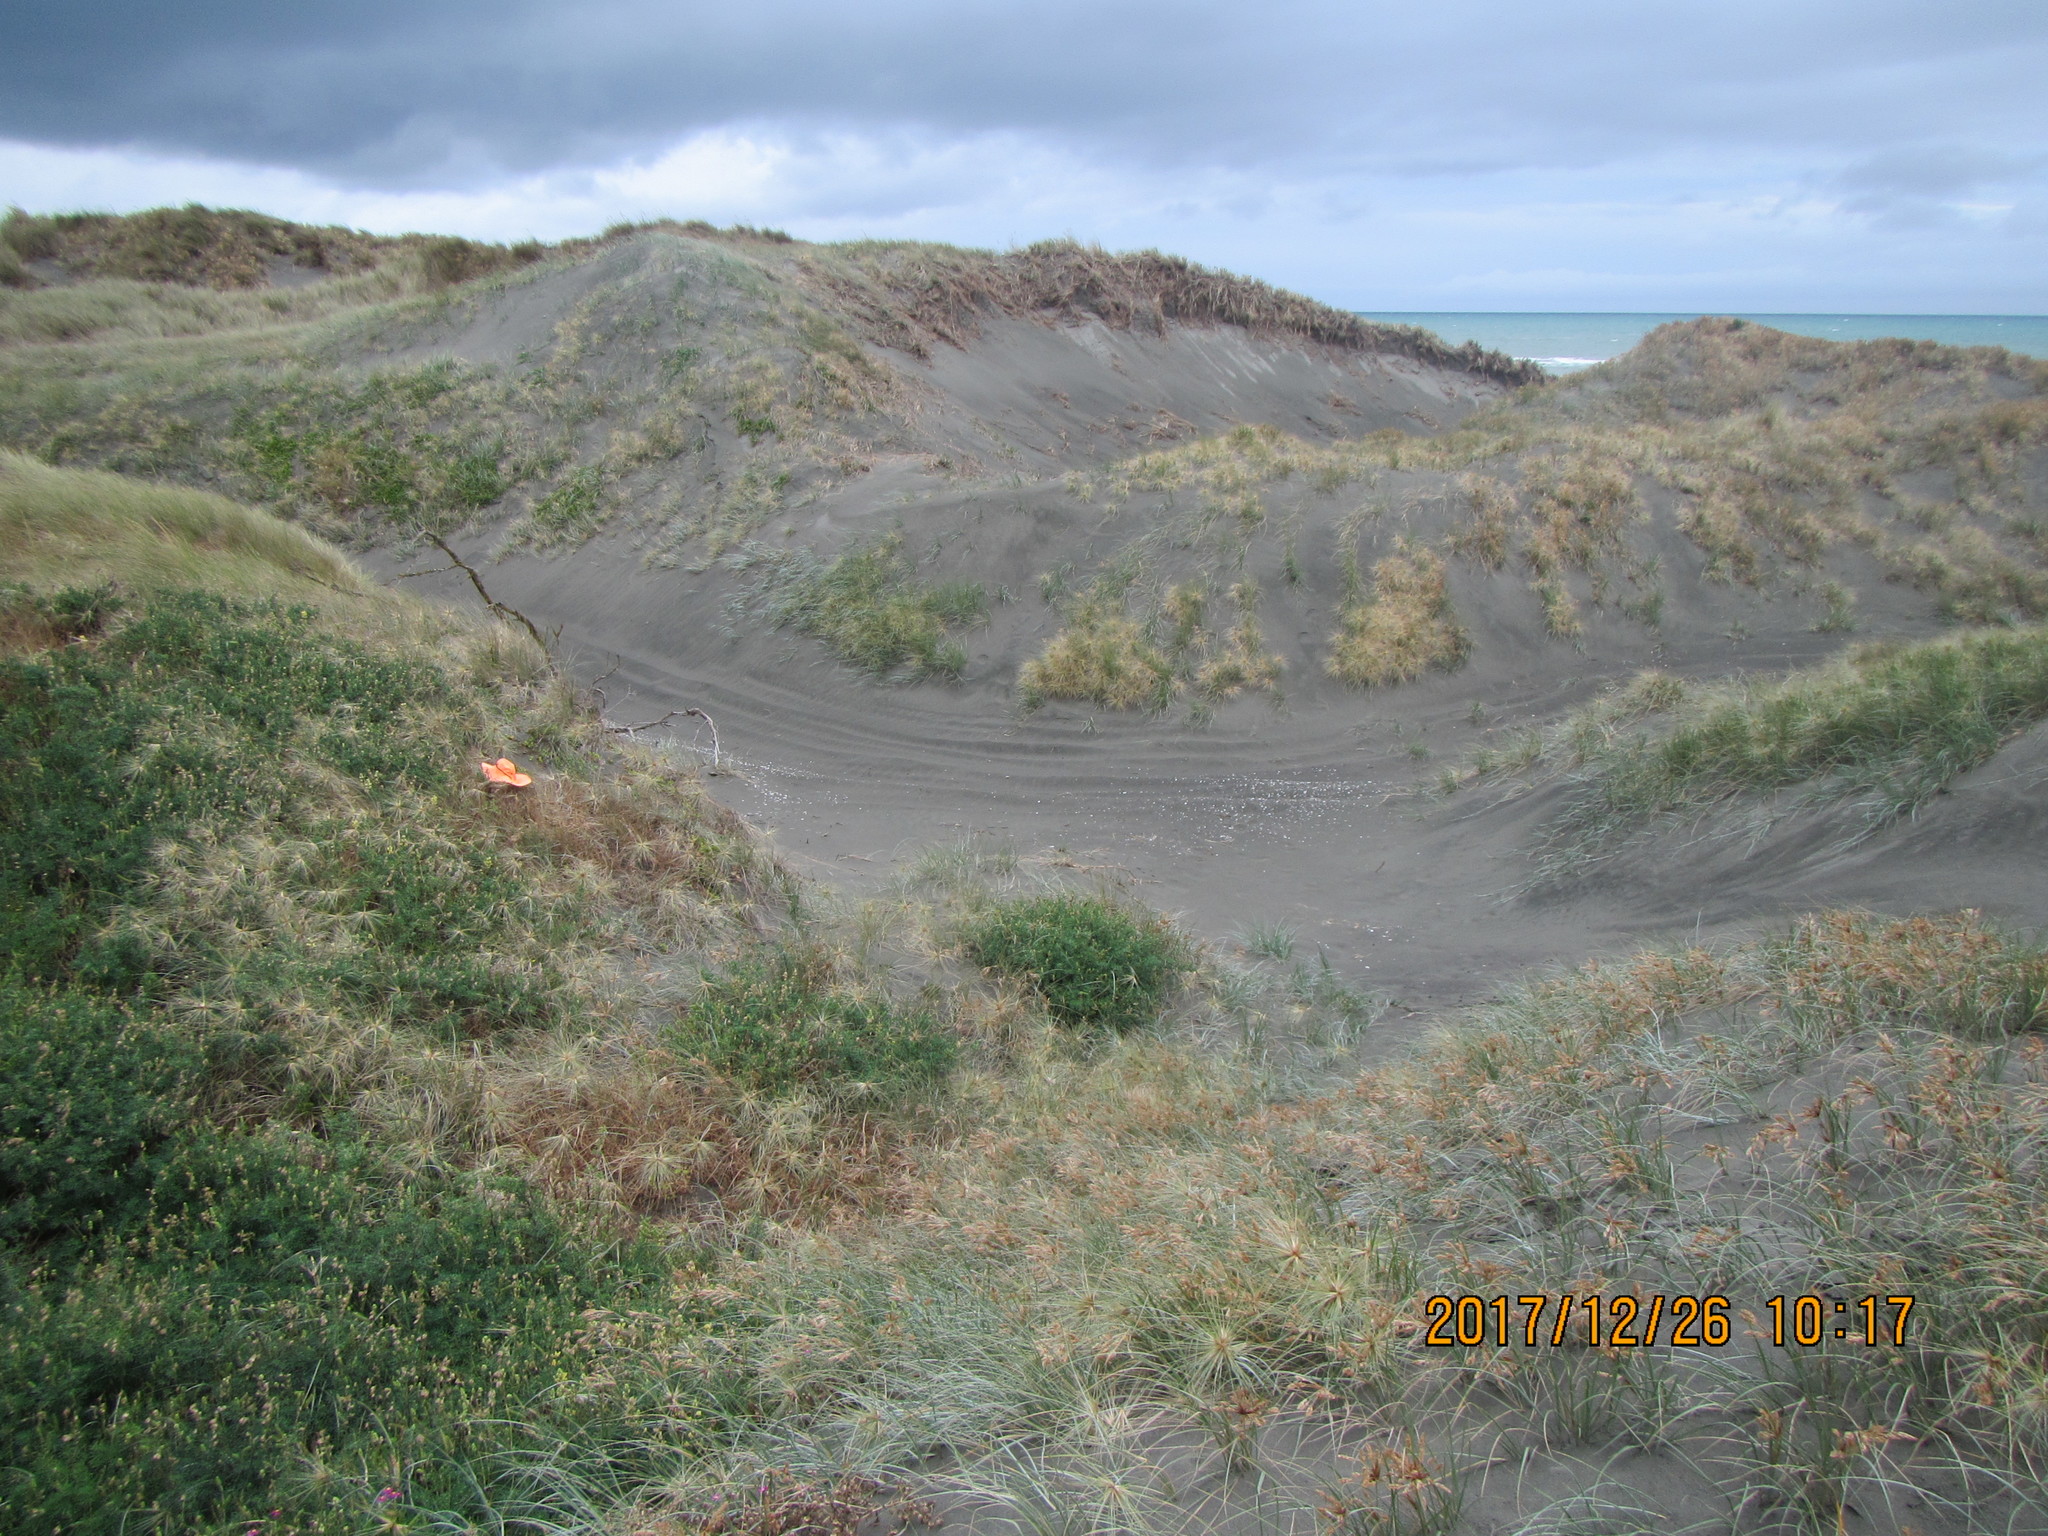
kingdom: Animalia
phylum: Arthropoda
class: Arachnida
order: Araneae
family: Theridiidae
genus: Latrodectus
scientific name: Latrodectus katipo
